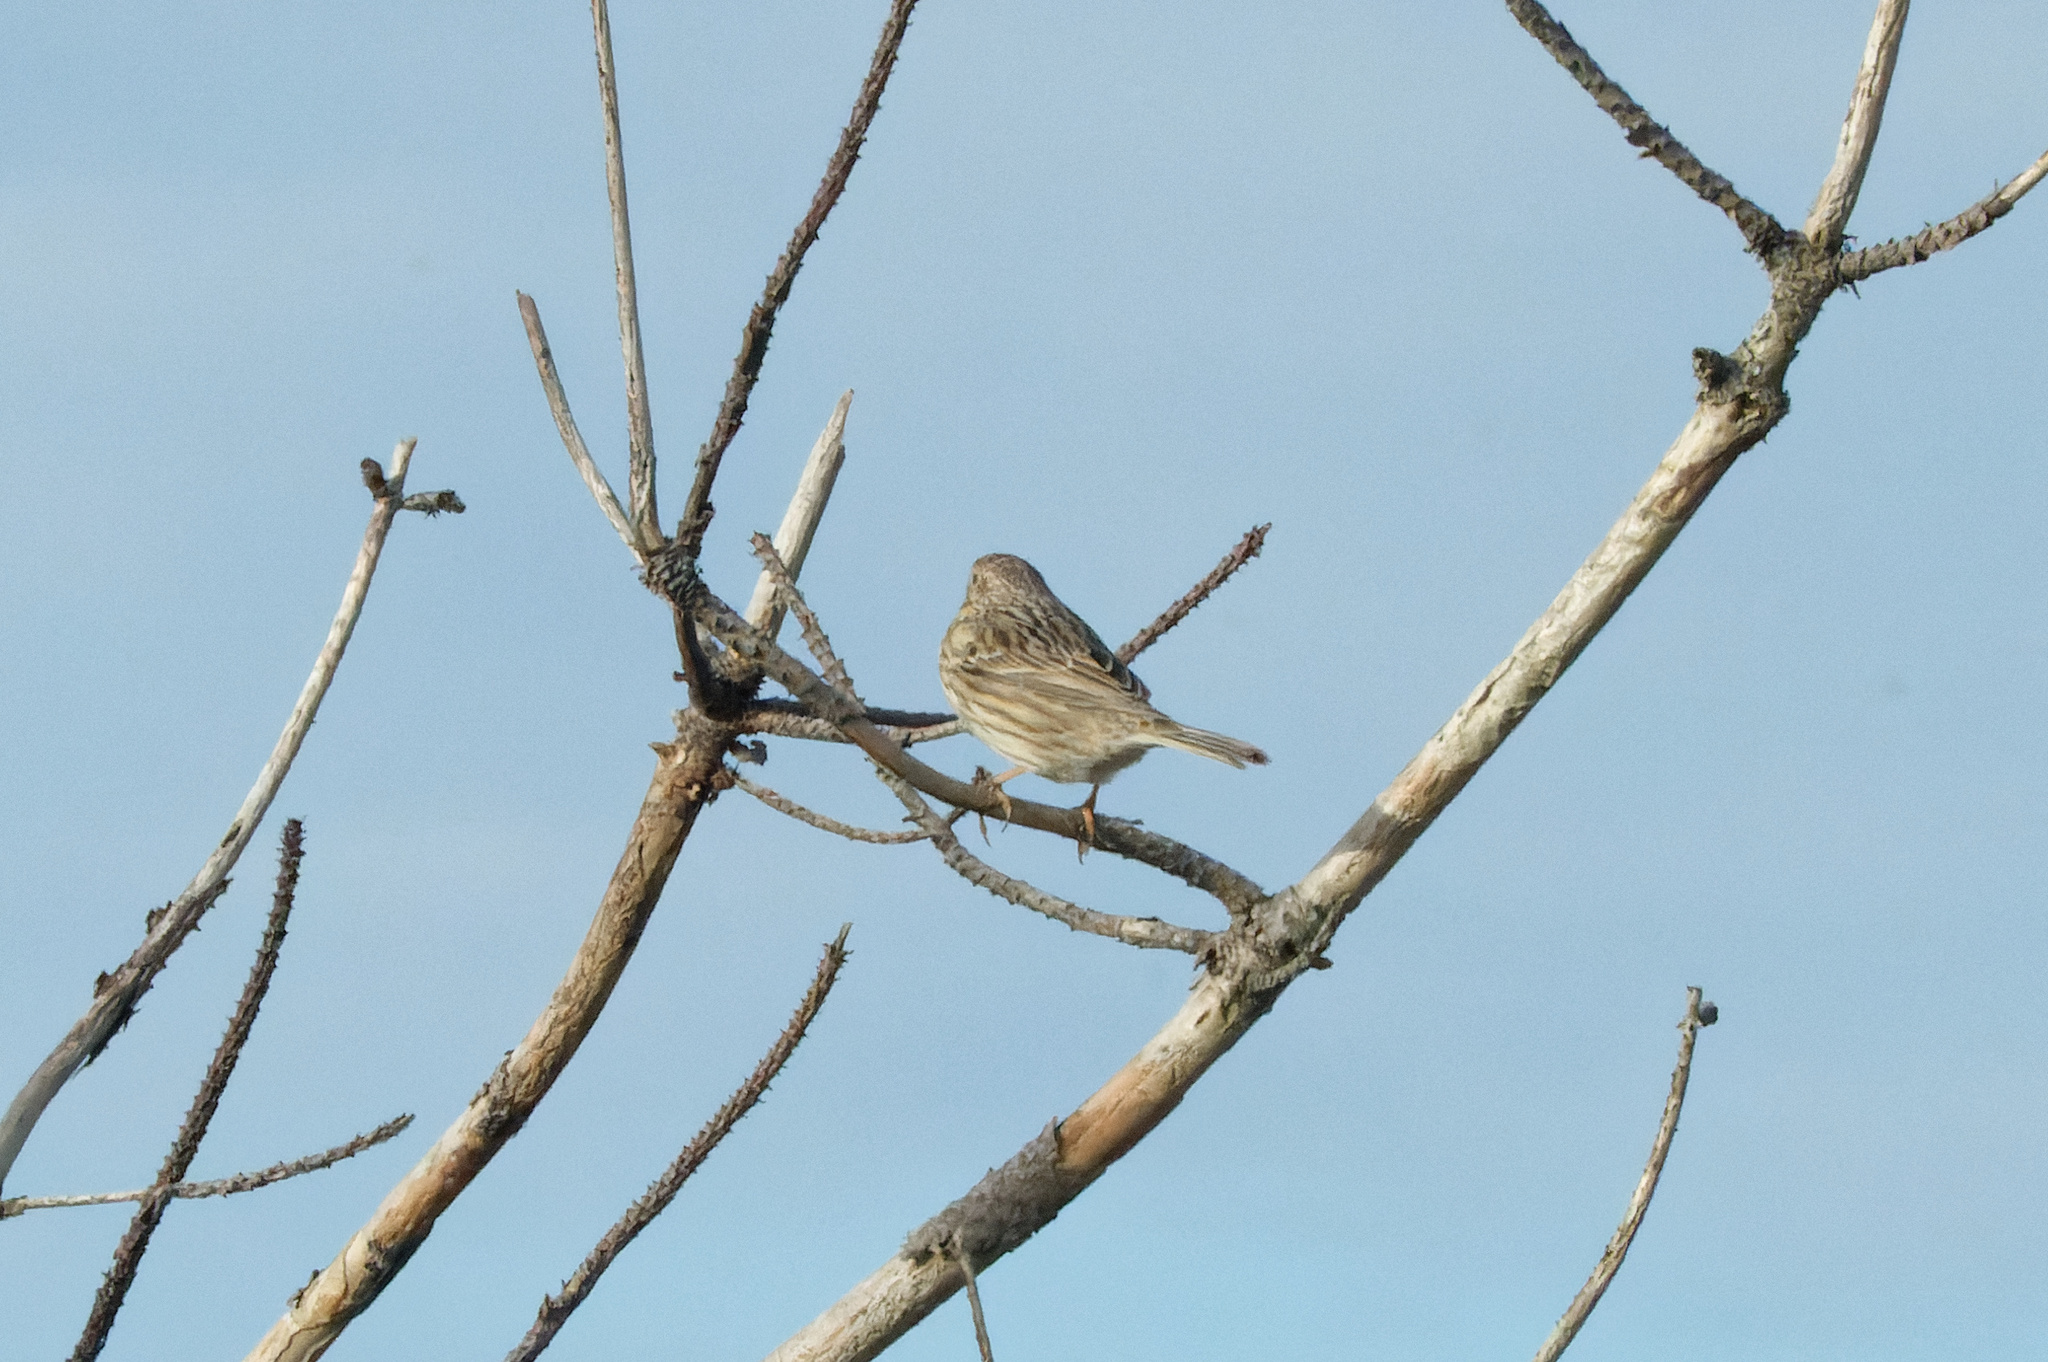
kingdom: Animalia
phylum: Chordata
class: Aves
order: Passeriformes
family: Emberizidae
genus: Emberiza
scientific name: Emberiza calandra
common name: Corn bunting
